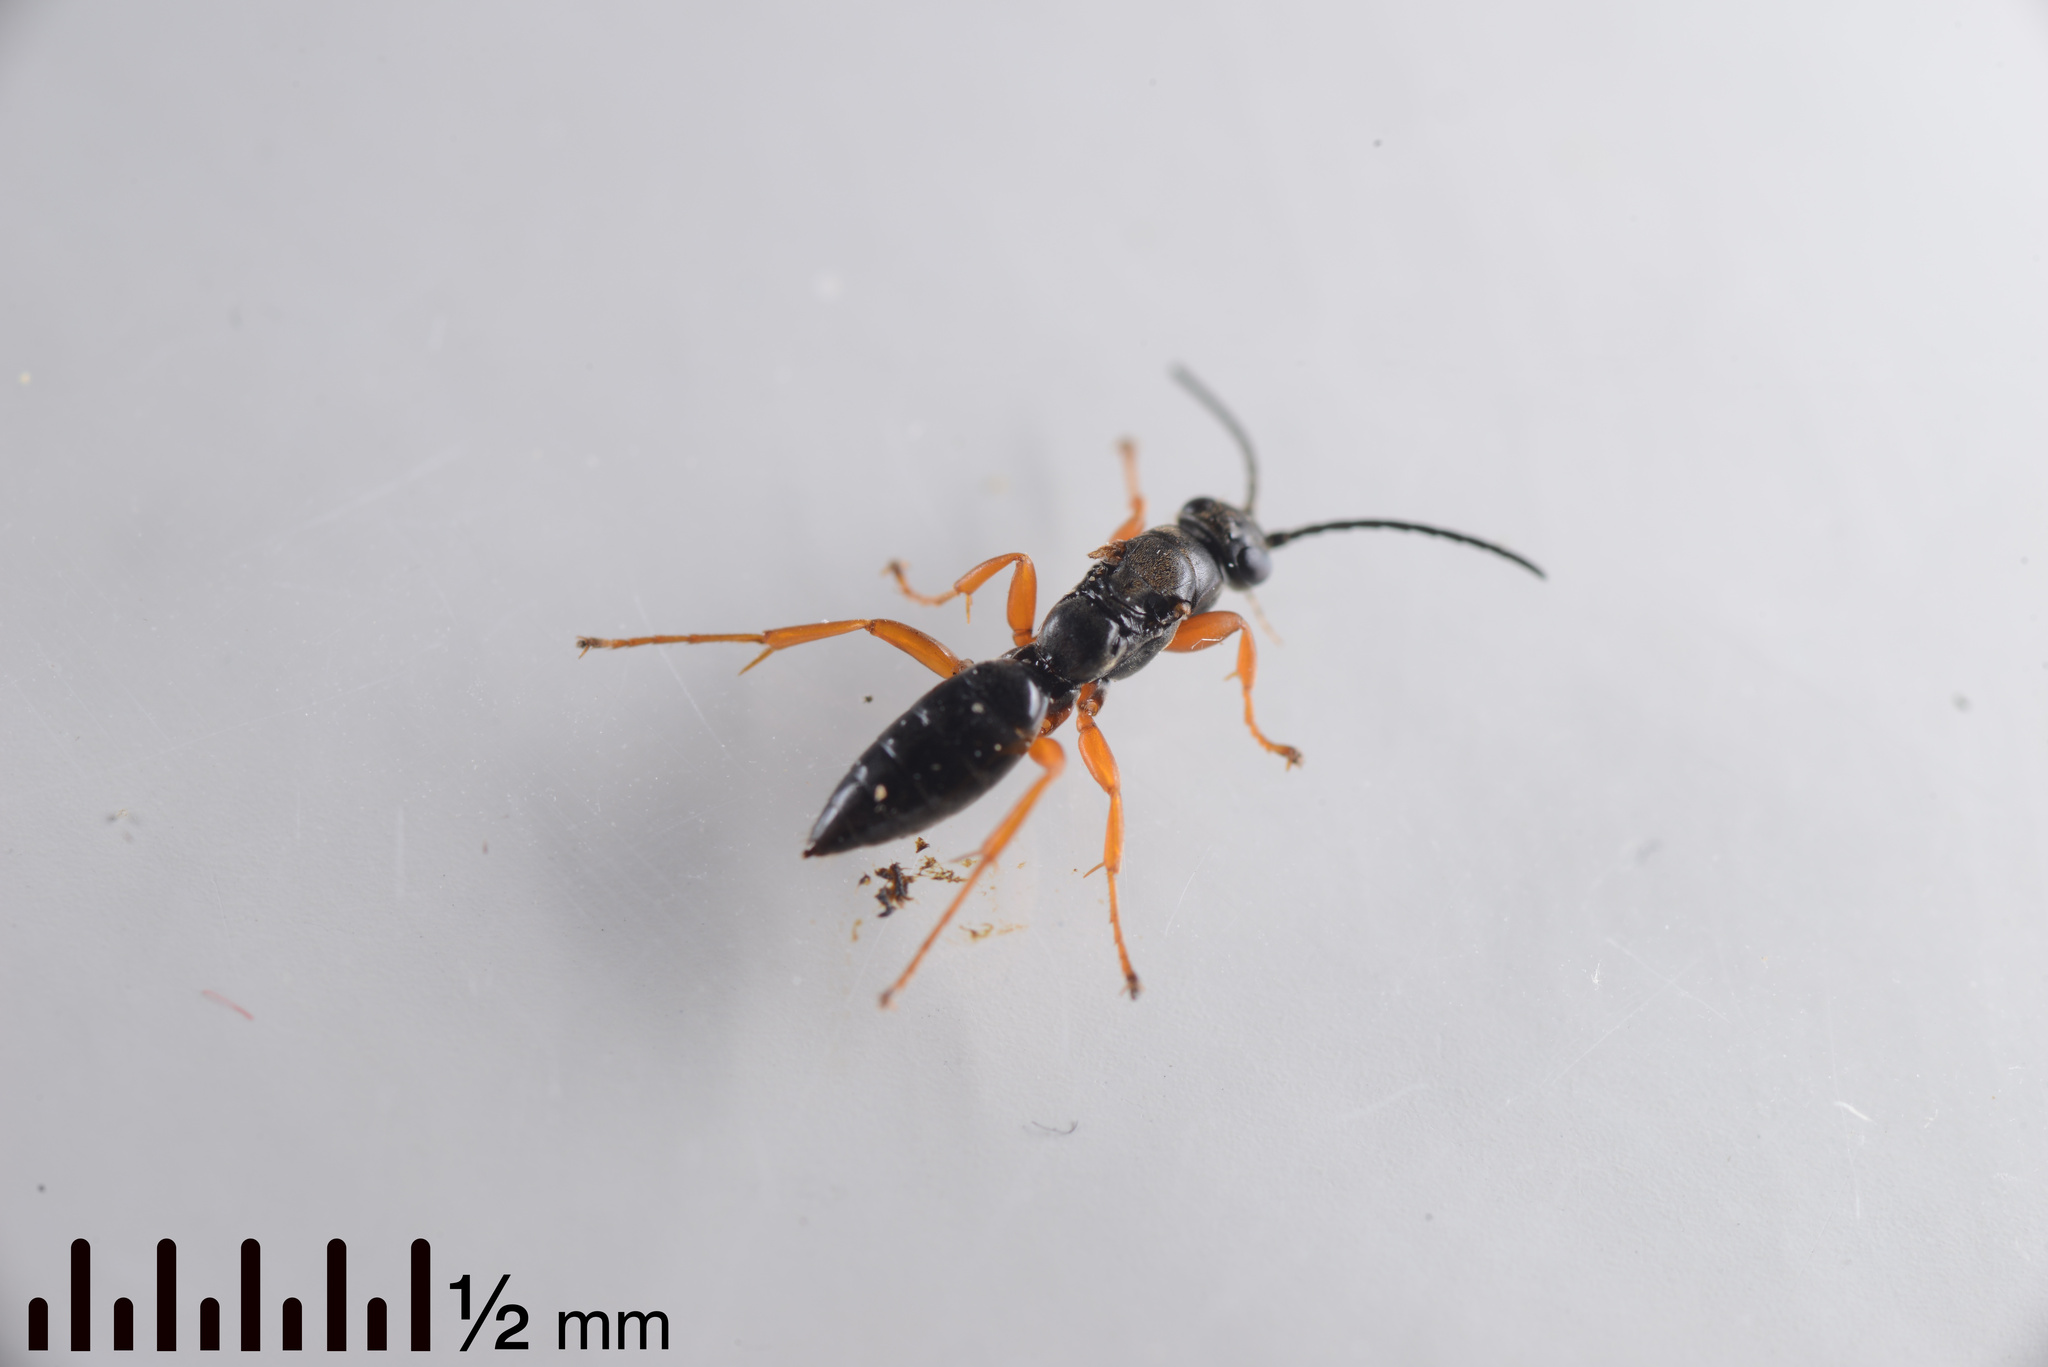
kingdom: Animalia
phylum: Arthropoda
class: Insecta
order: Hymenoptera
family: Pompilidae
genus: Epipompilus
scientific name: Epipompilus insularis
